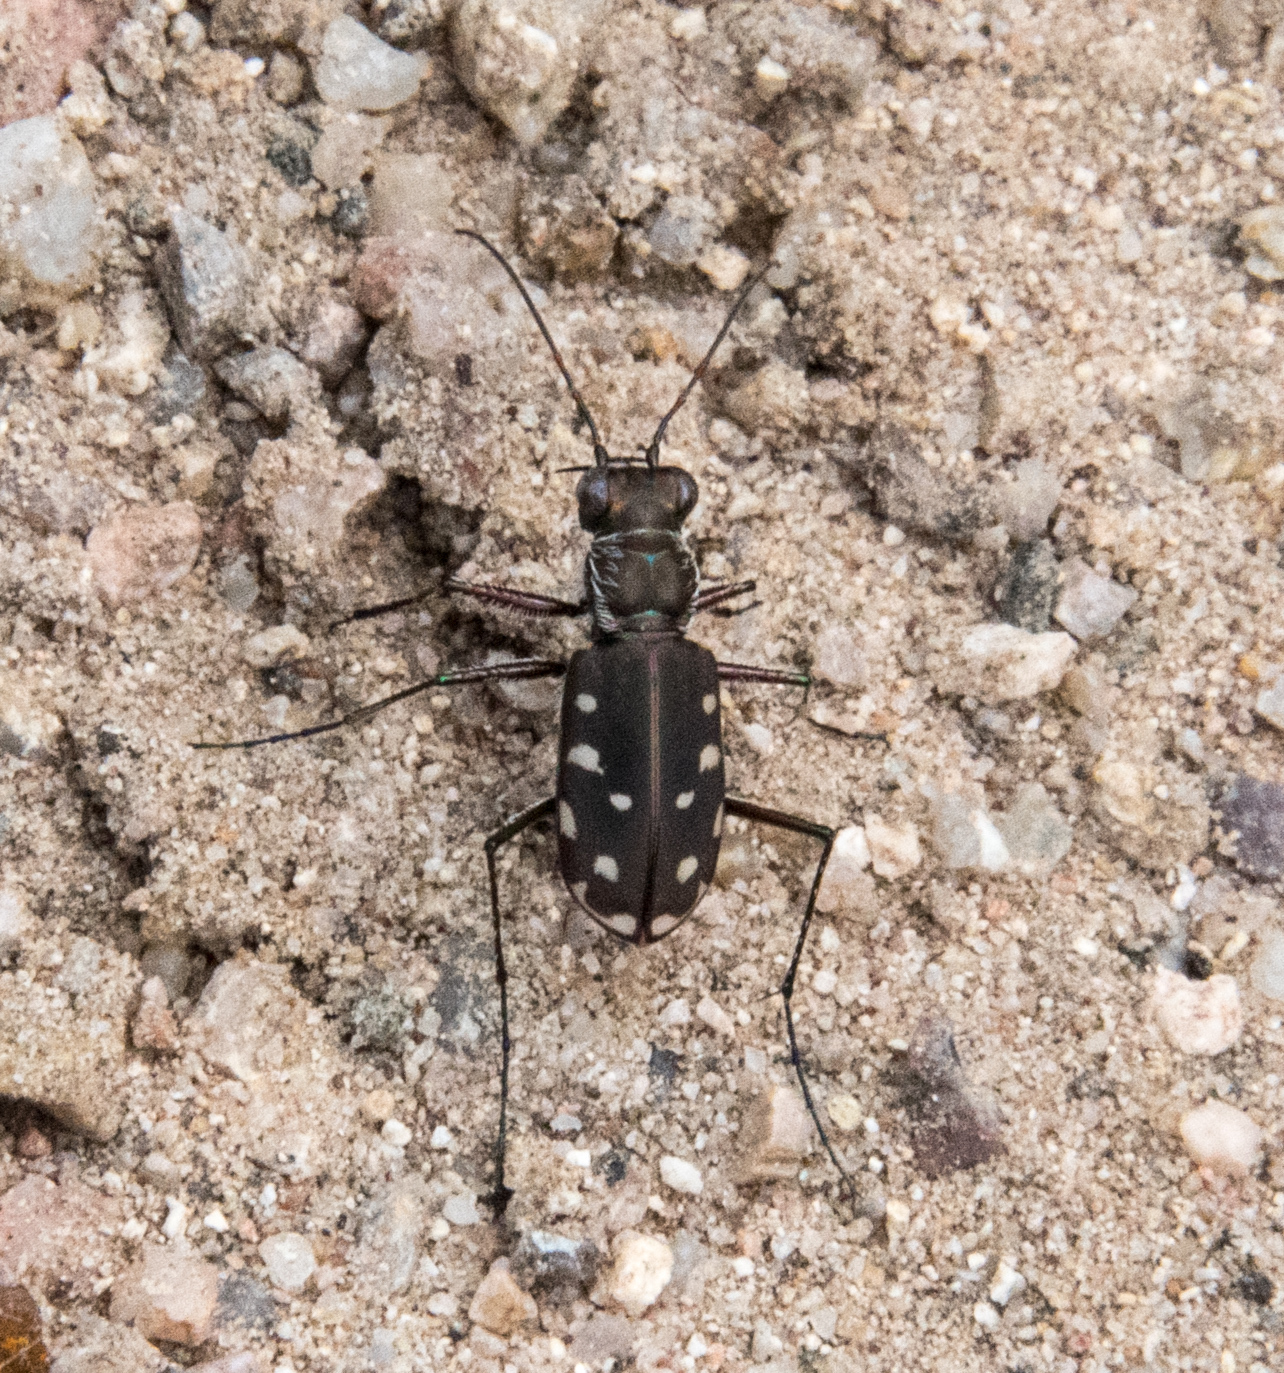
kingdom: Animalia
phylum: Arthropoda
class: Insecta
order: Coleoptera
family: Carabidae
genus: Cicindela
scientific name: Cicindela sedecimpunctata
